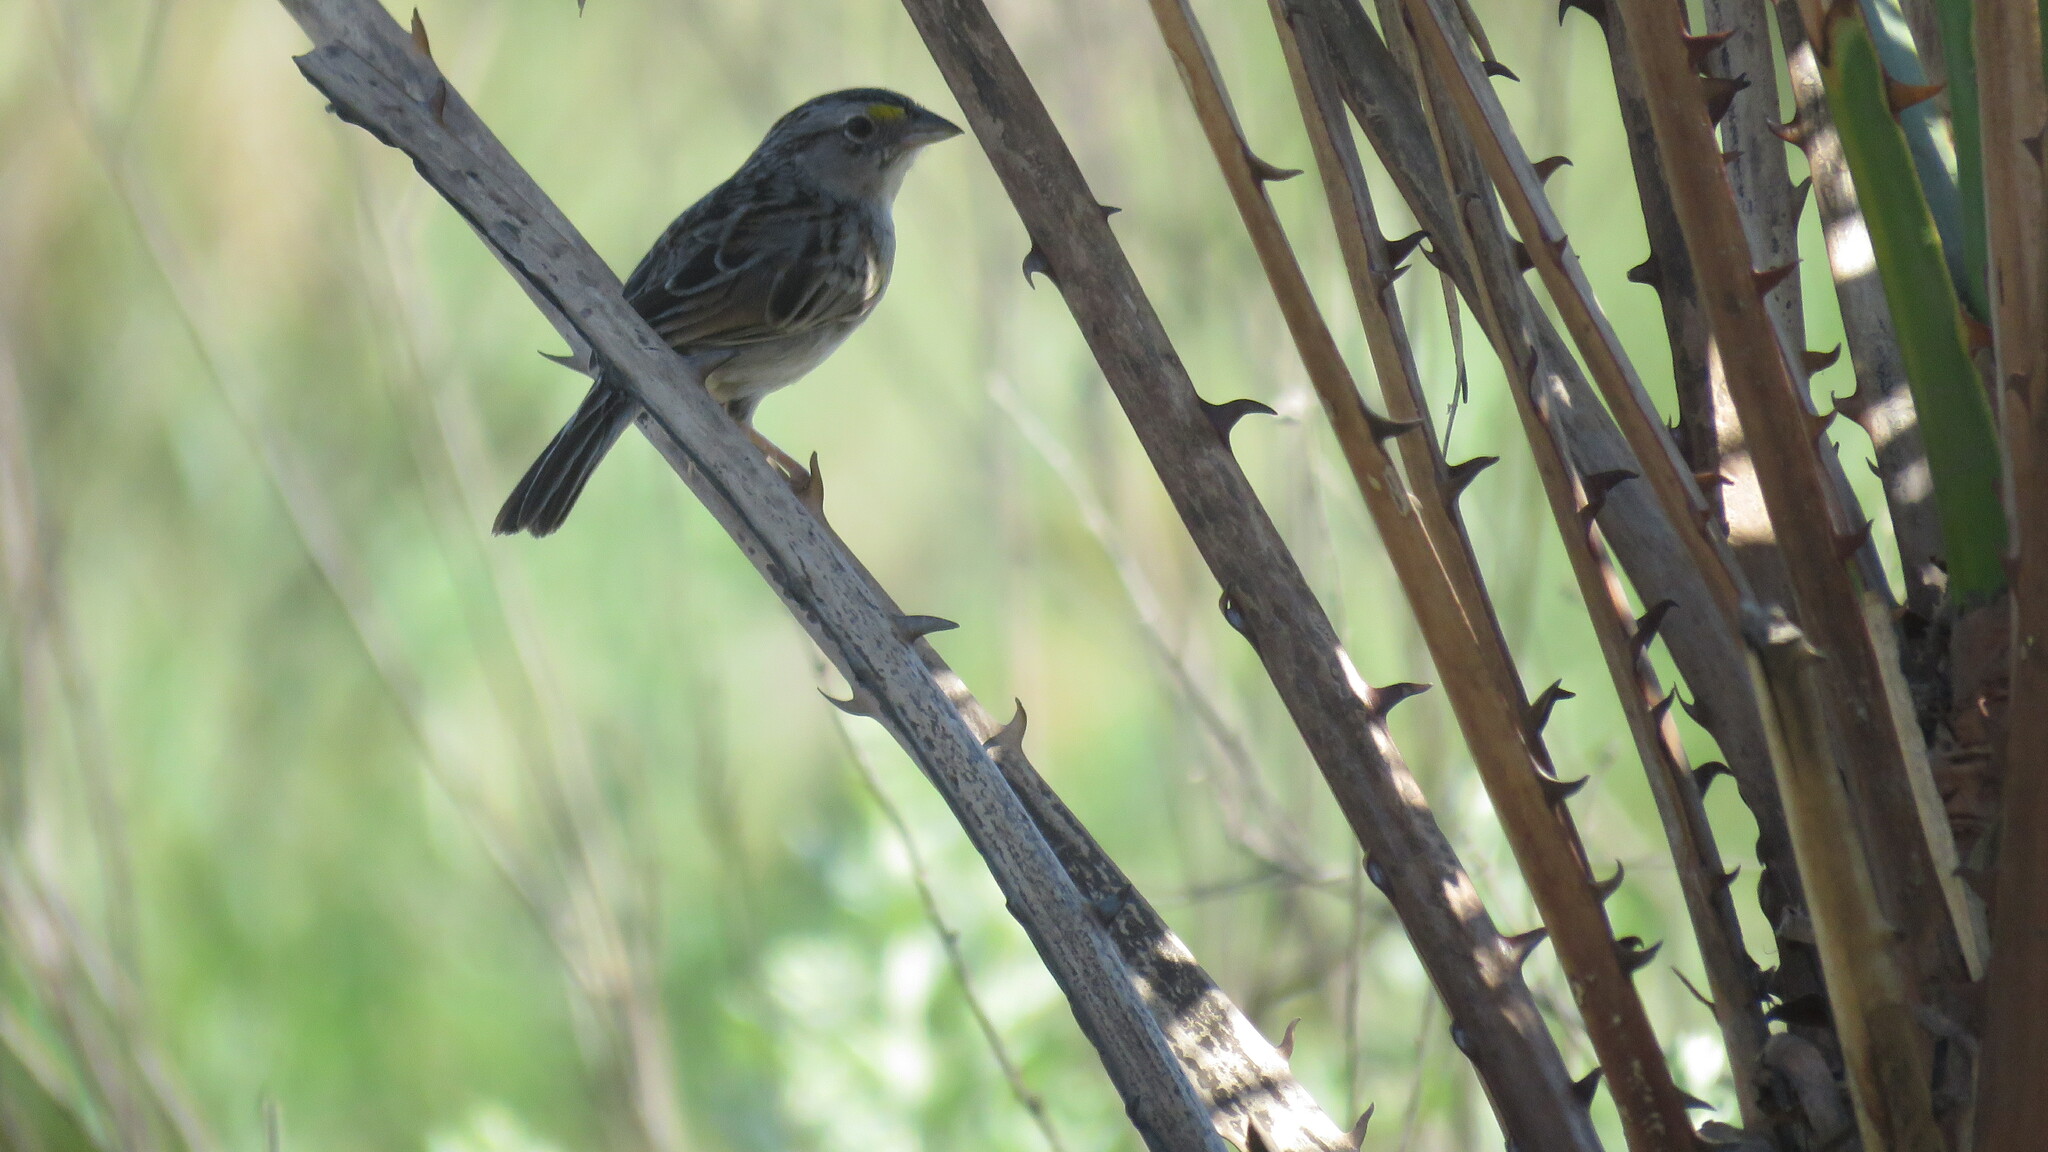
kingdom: Animalia
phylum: Chordata
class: Aves
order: Passeriformes
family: Passerellidae
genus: Ammodramus
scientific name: Ammodramus humeralis
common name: Grassland sparrow
